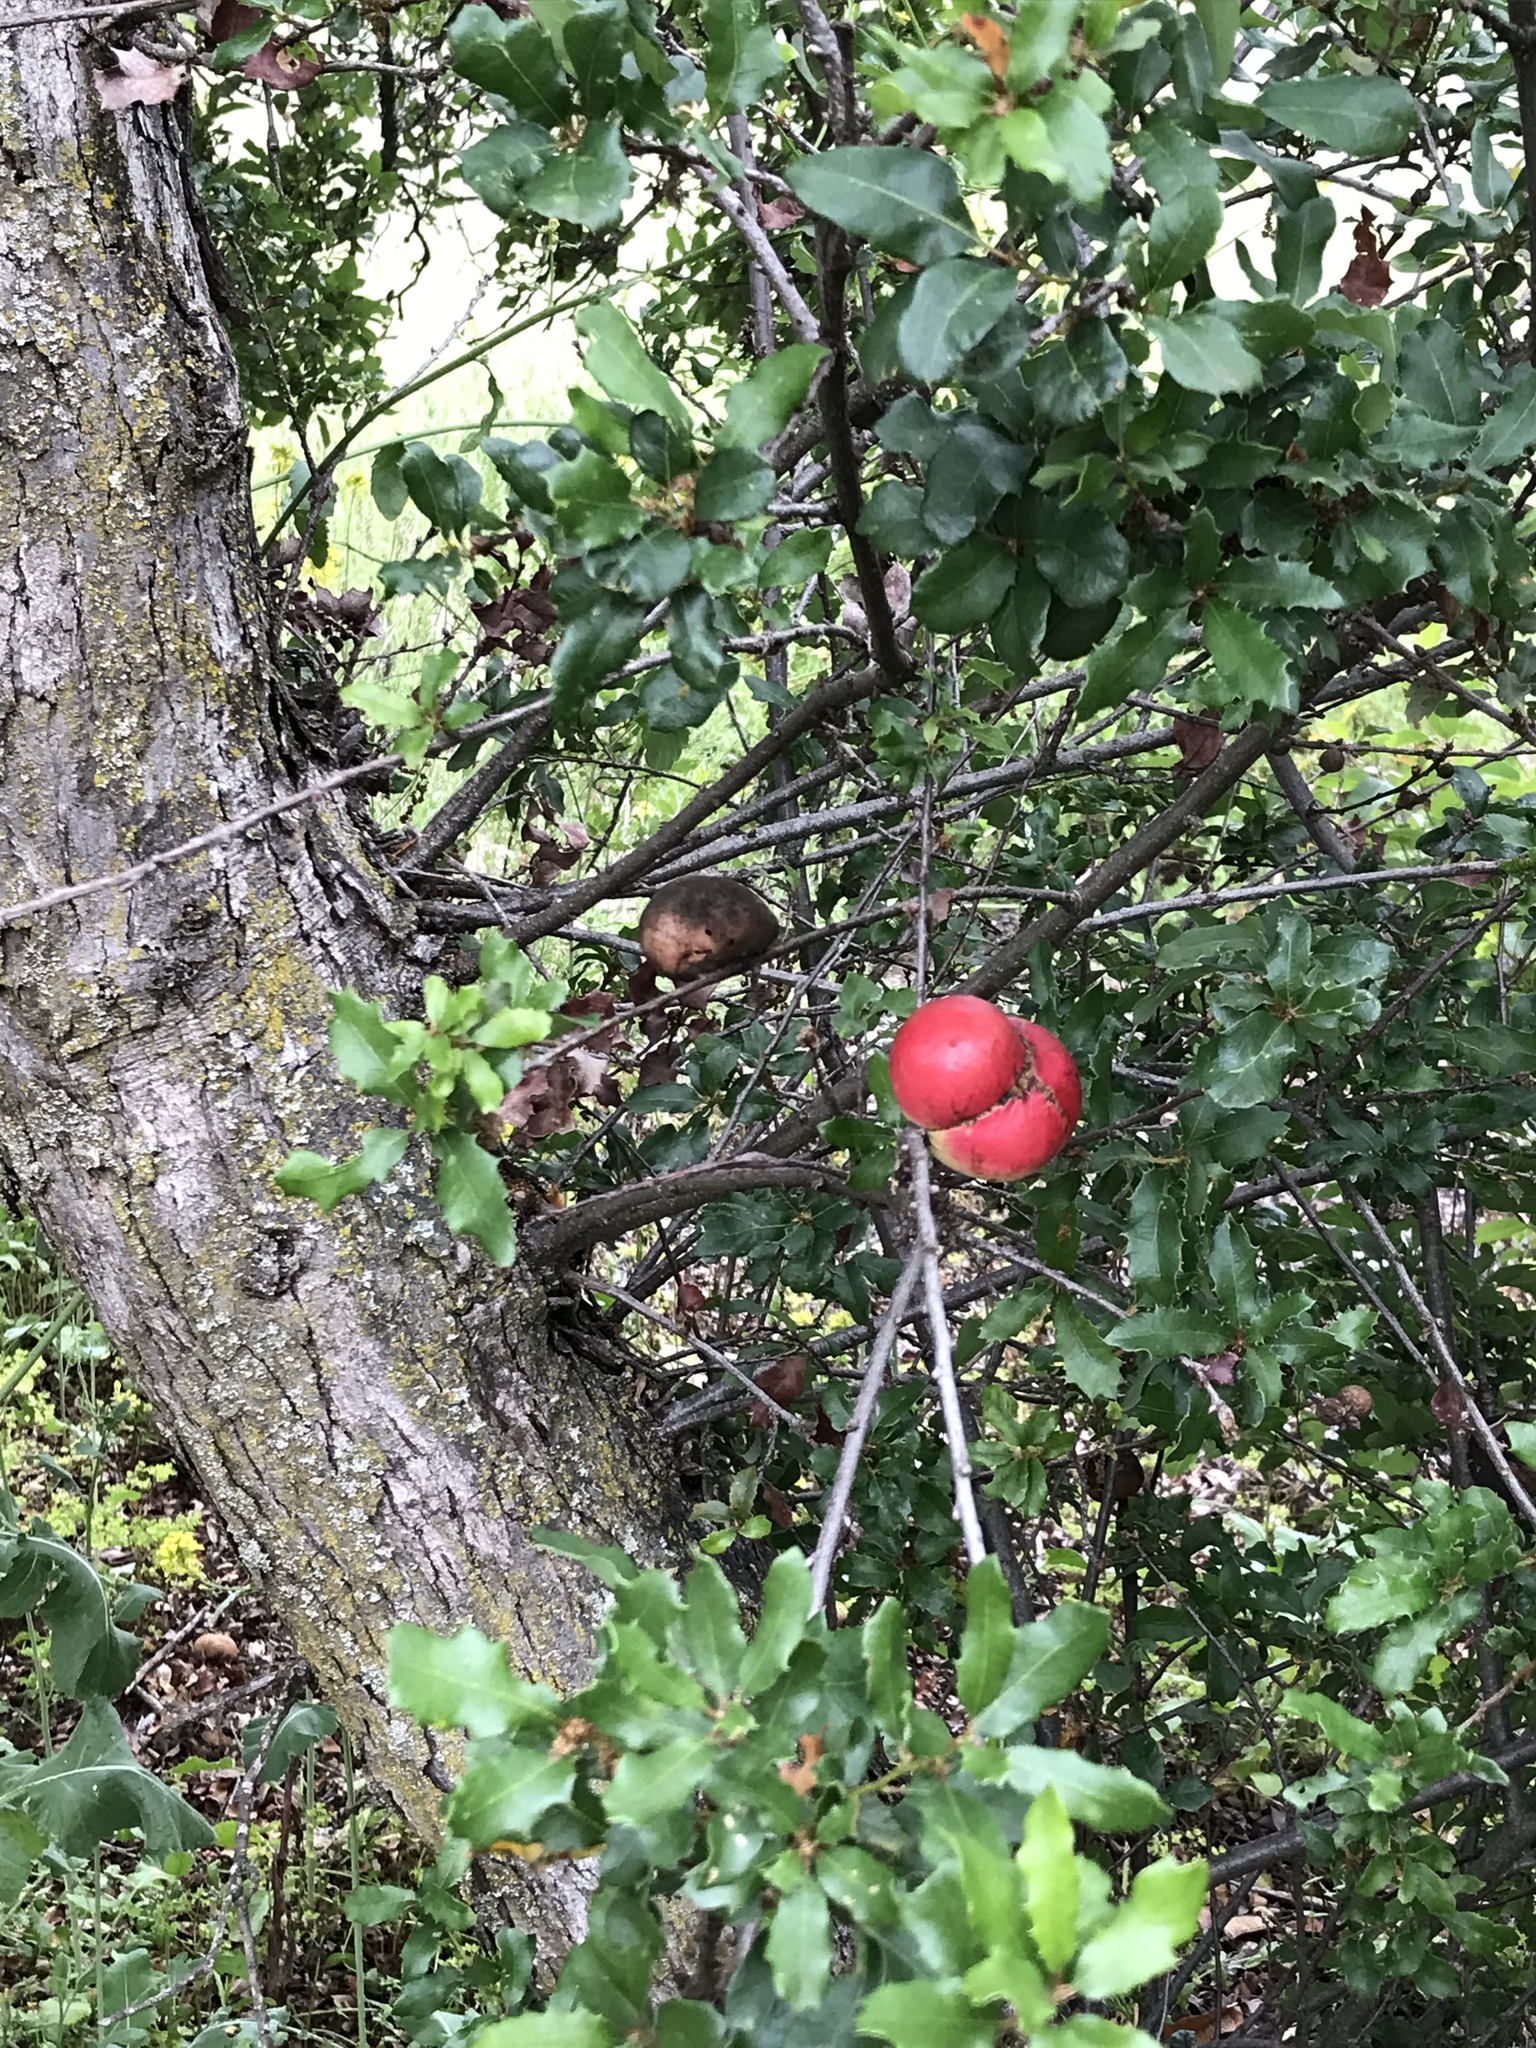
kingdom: Animalia
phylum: Arthropoda
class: Insecta
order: Hymenoptera
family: Cynipidae
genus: Andricus
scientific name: Andricus quercuscalifornicus
